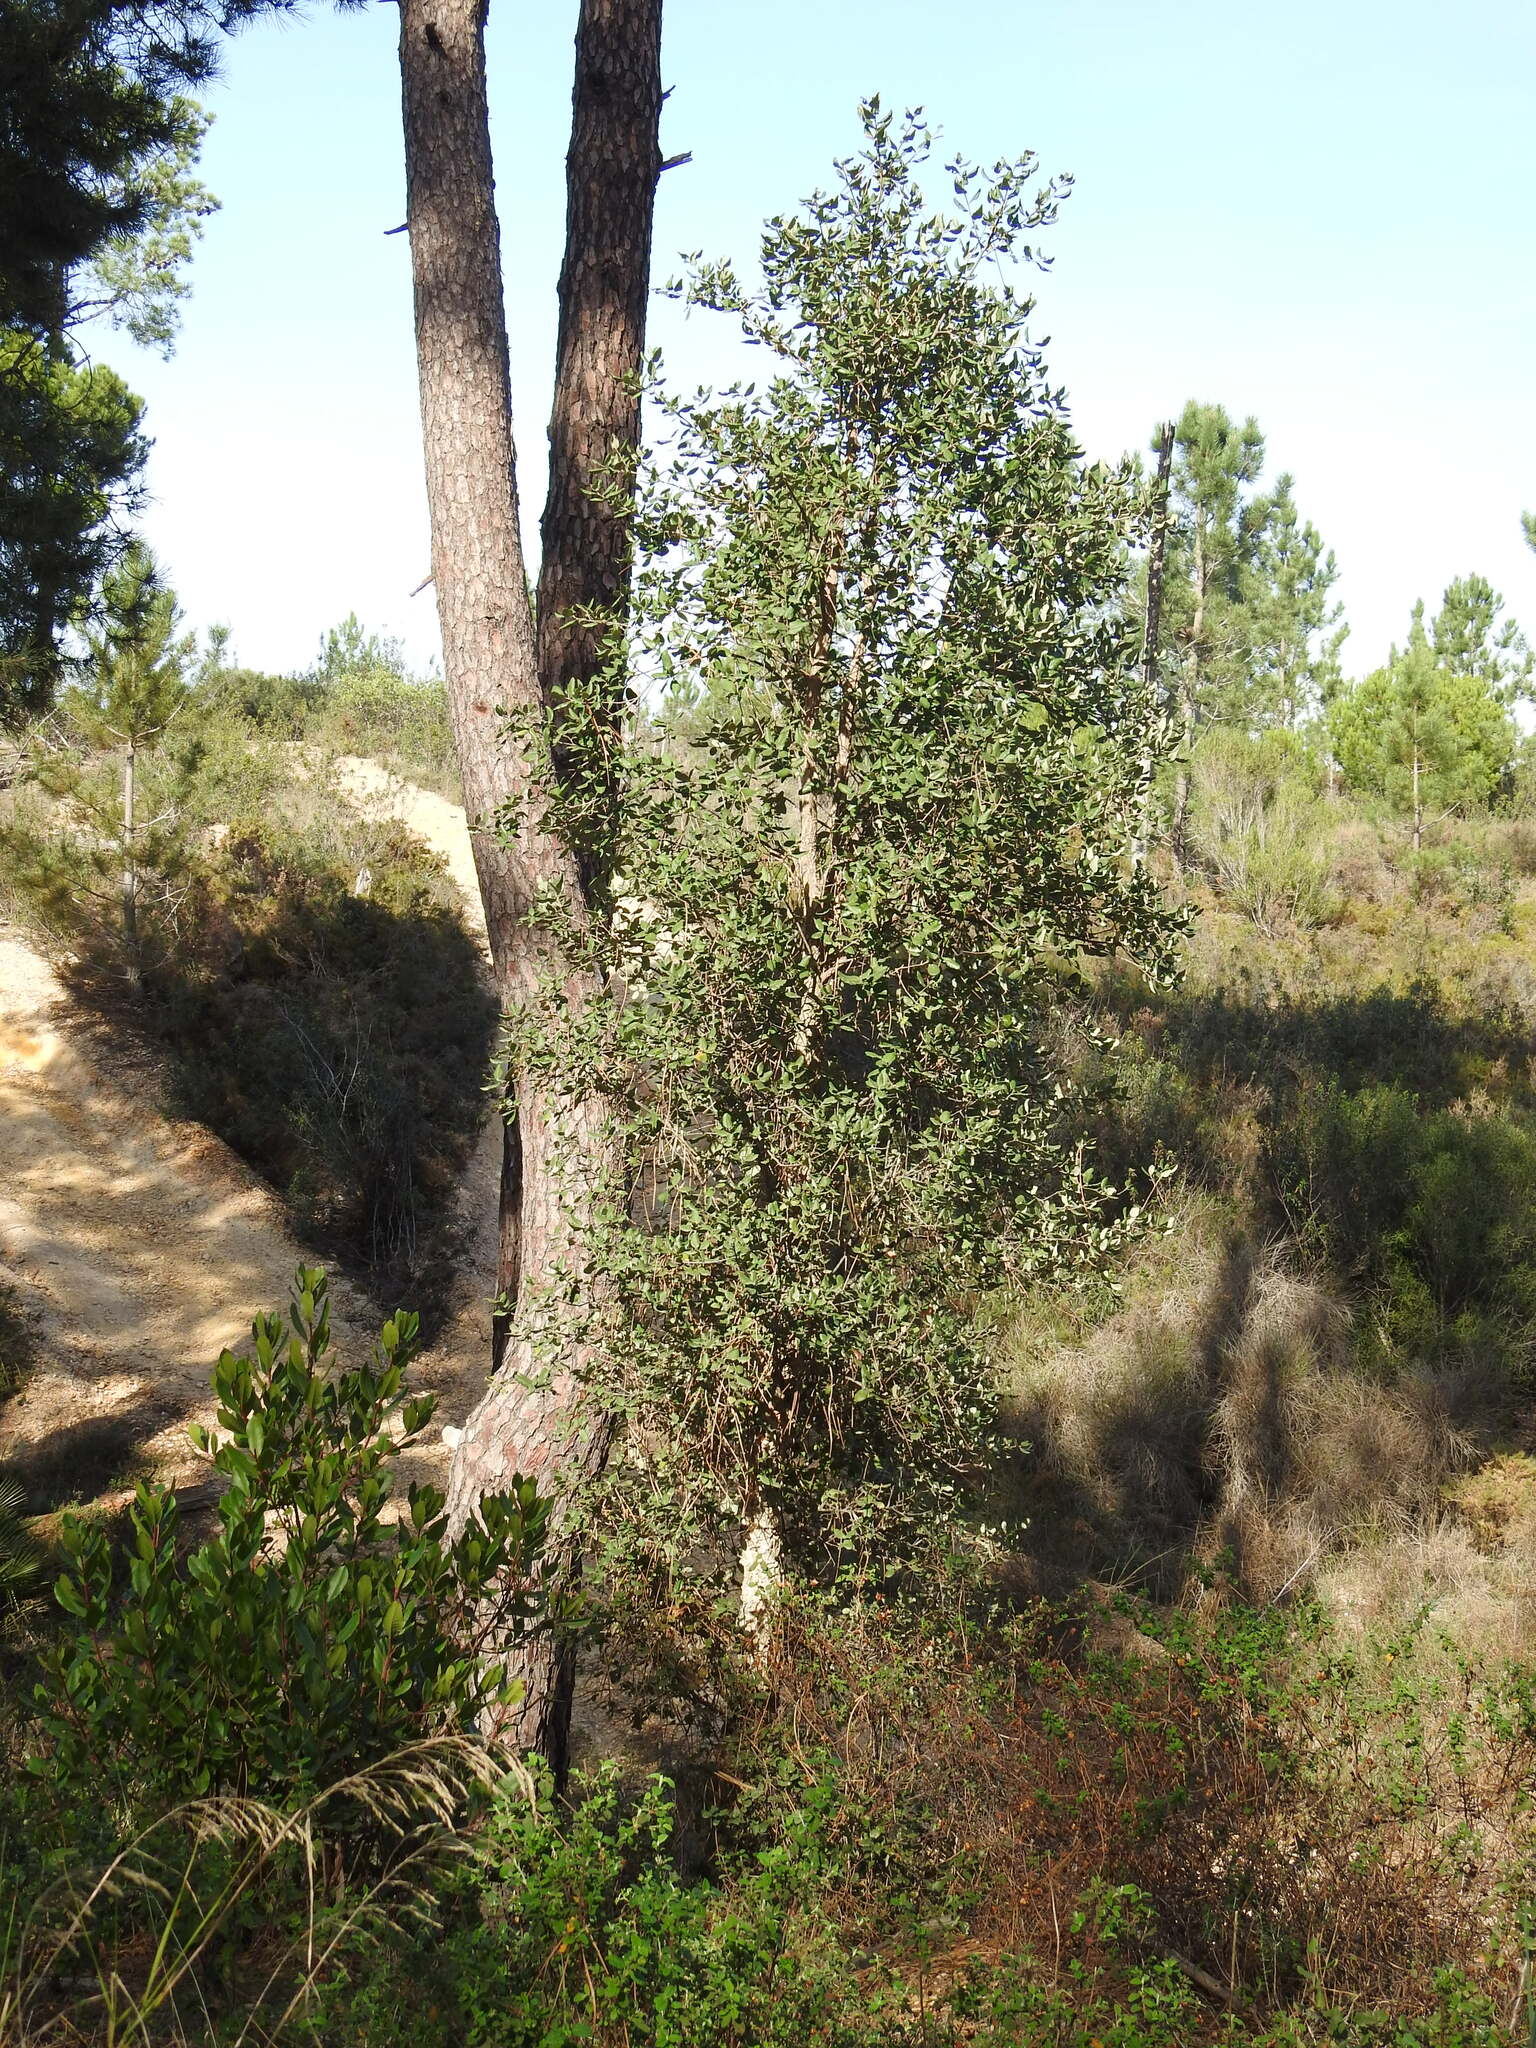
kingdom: Plantae
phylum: Tracheophyta
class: Magnoliopsida
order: Fagales
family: Fagaceae
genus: Quercus
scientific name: Quercus suber
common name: Cork oak
